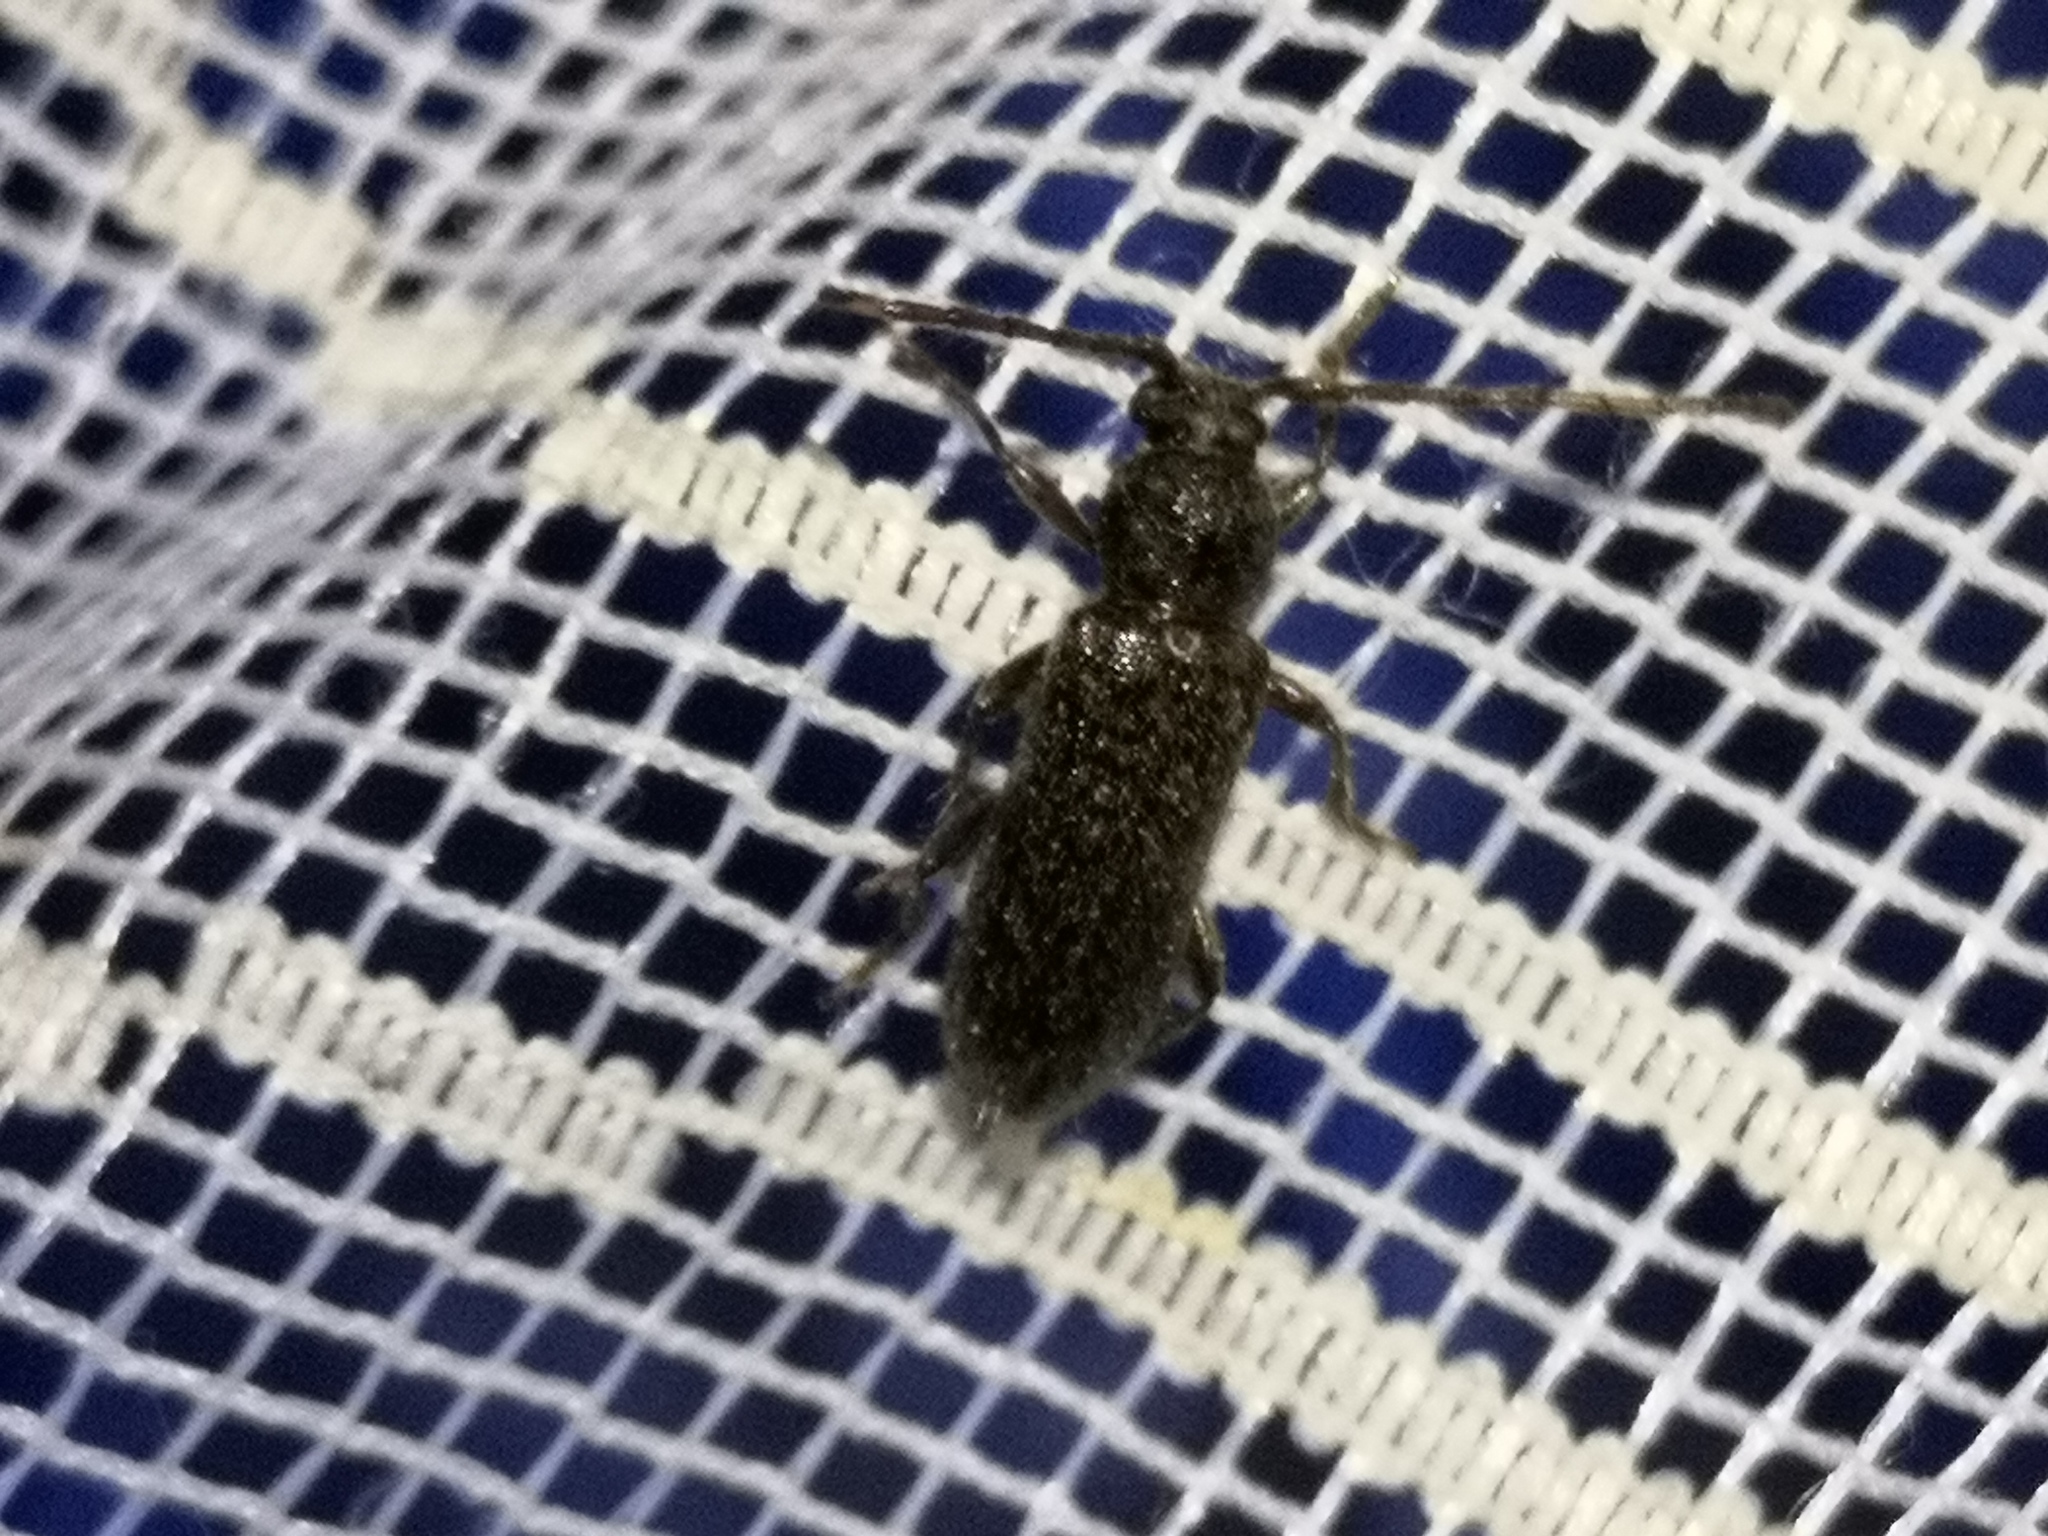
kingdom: Animalia
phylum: Arthropoda
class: Insecta
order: Coleoptera
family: Cerambycidae
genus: Trichoferus
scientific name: Trichoferus
